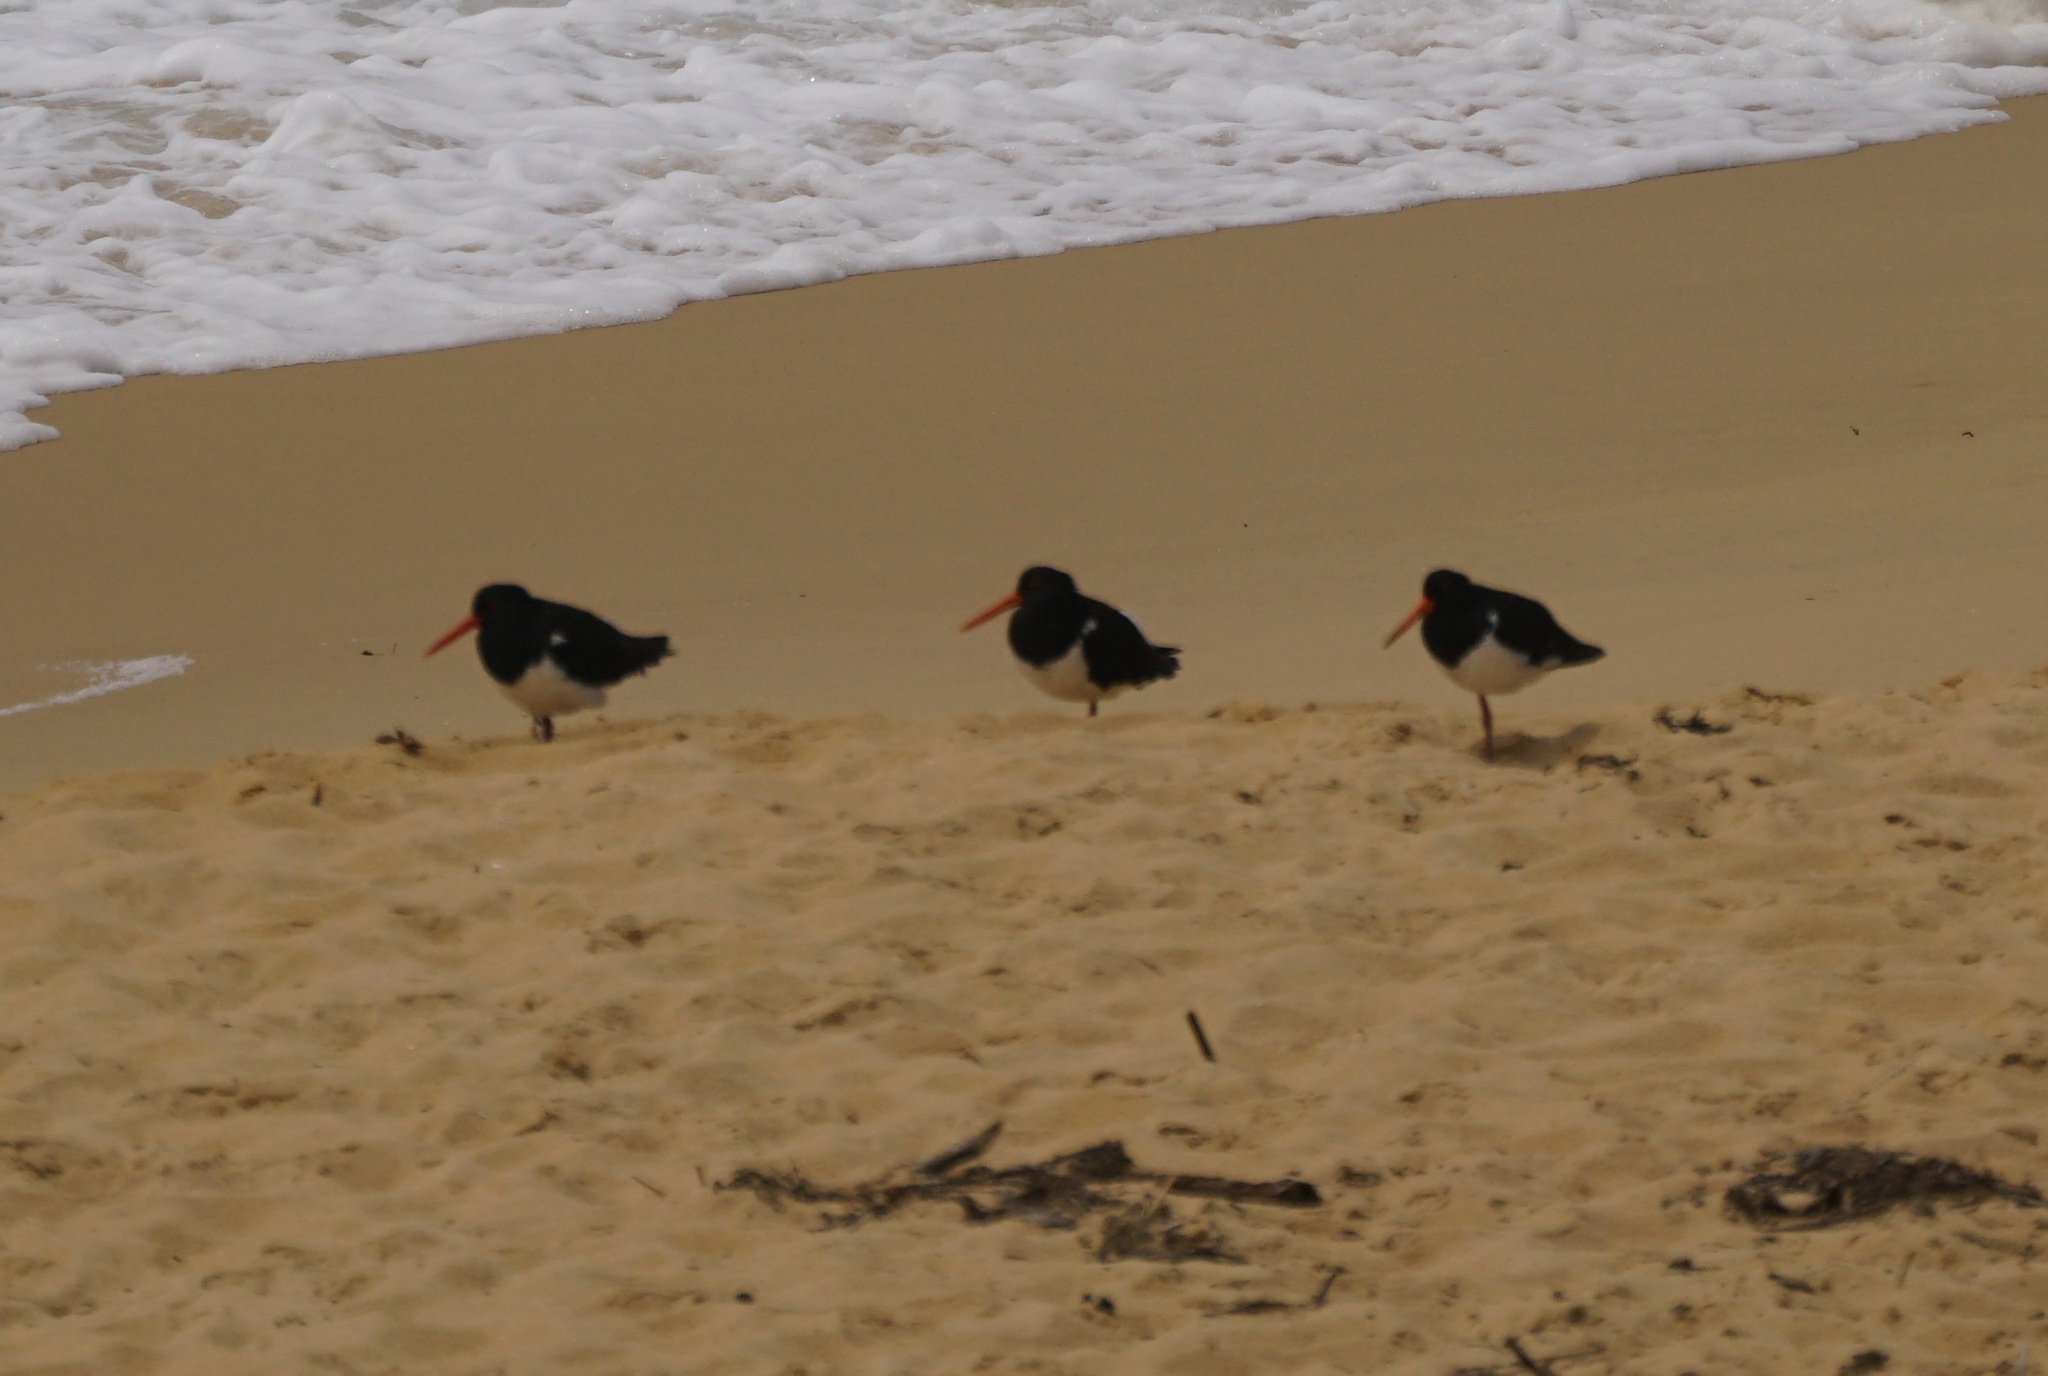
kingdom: Animalia
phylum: Chordata
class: Aves
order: Charadriiformes
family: Haematopodidae
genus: Haematopus
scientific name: Haematopus longirostris
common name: Pied oystercatcher
